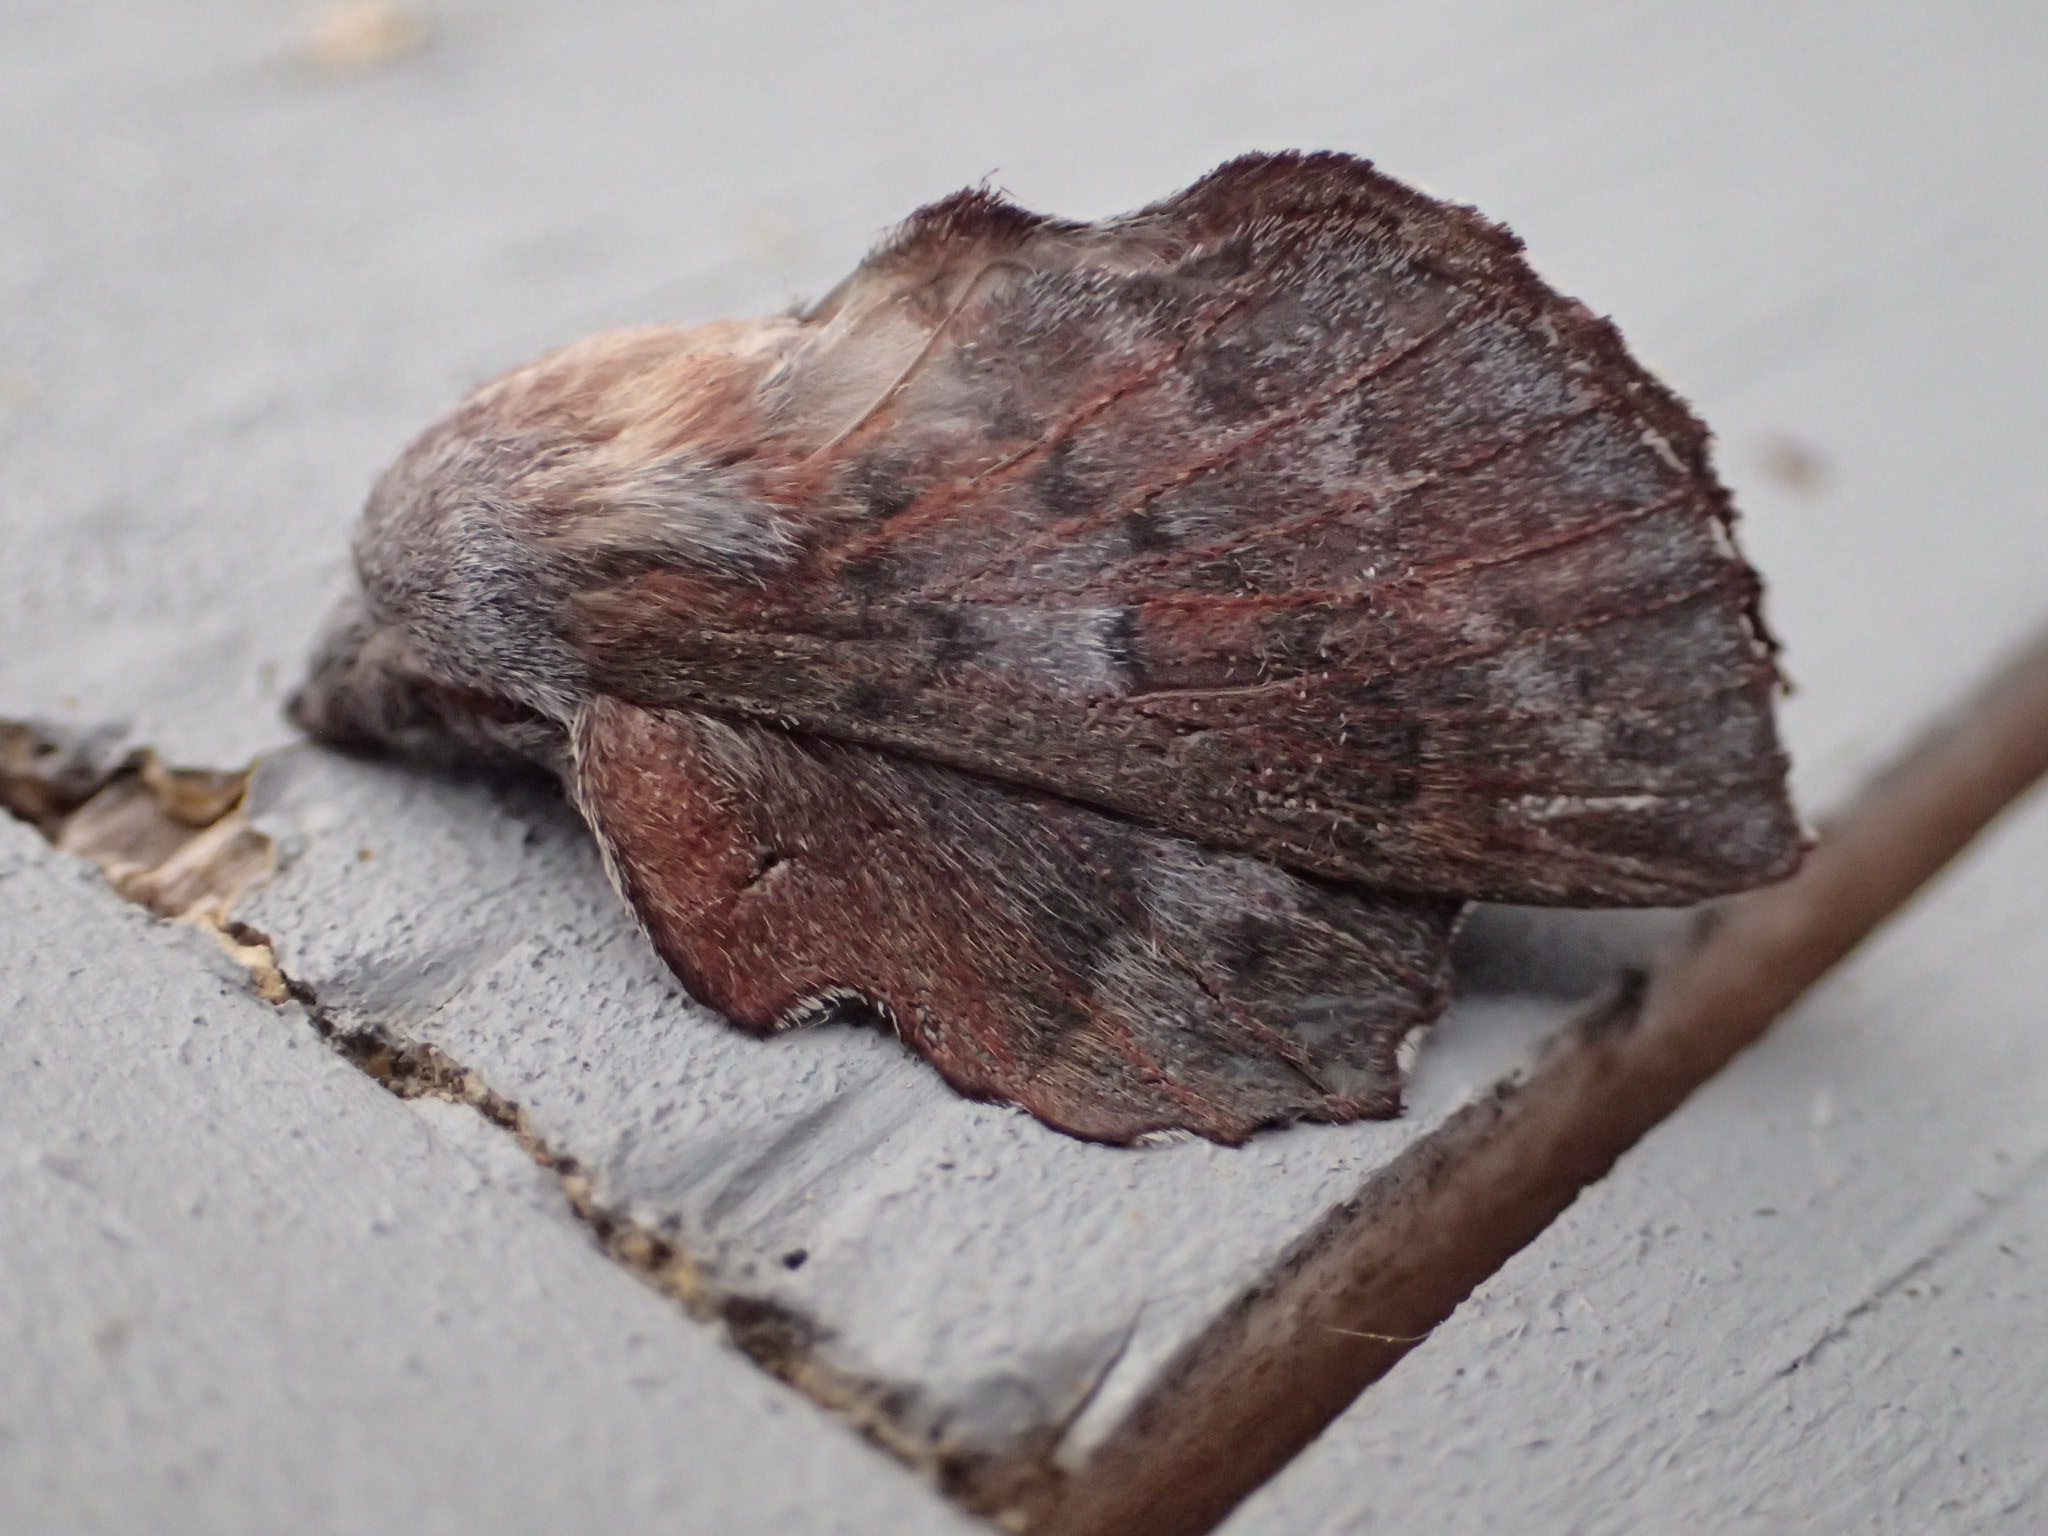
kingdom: Animalia
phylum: Arthropoda
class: Insecta
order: Lepidoptera
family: Lasiocampidae
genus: Phyllodesma
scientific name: Phyllodesma americana
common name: American lappet moth
